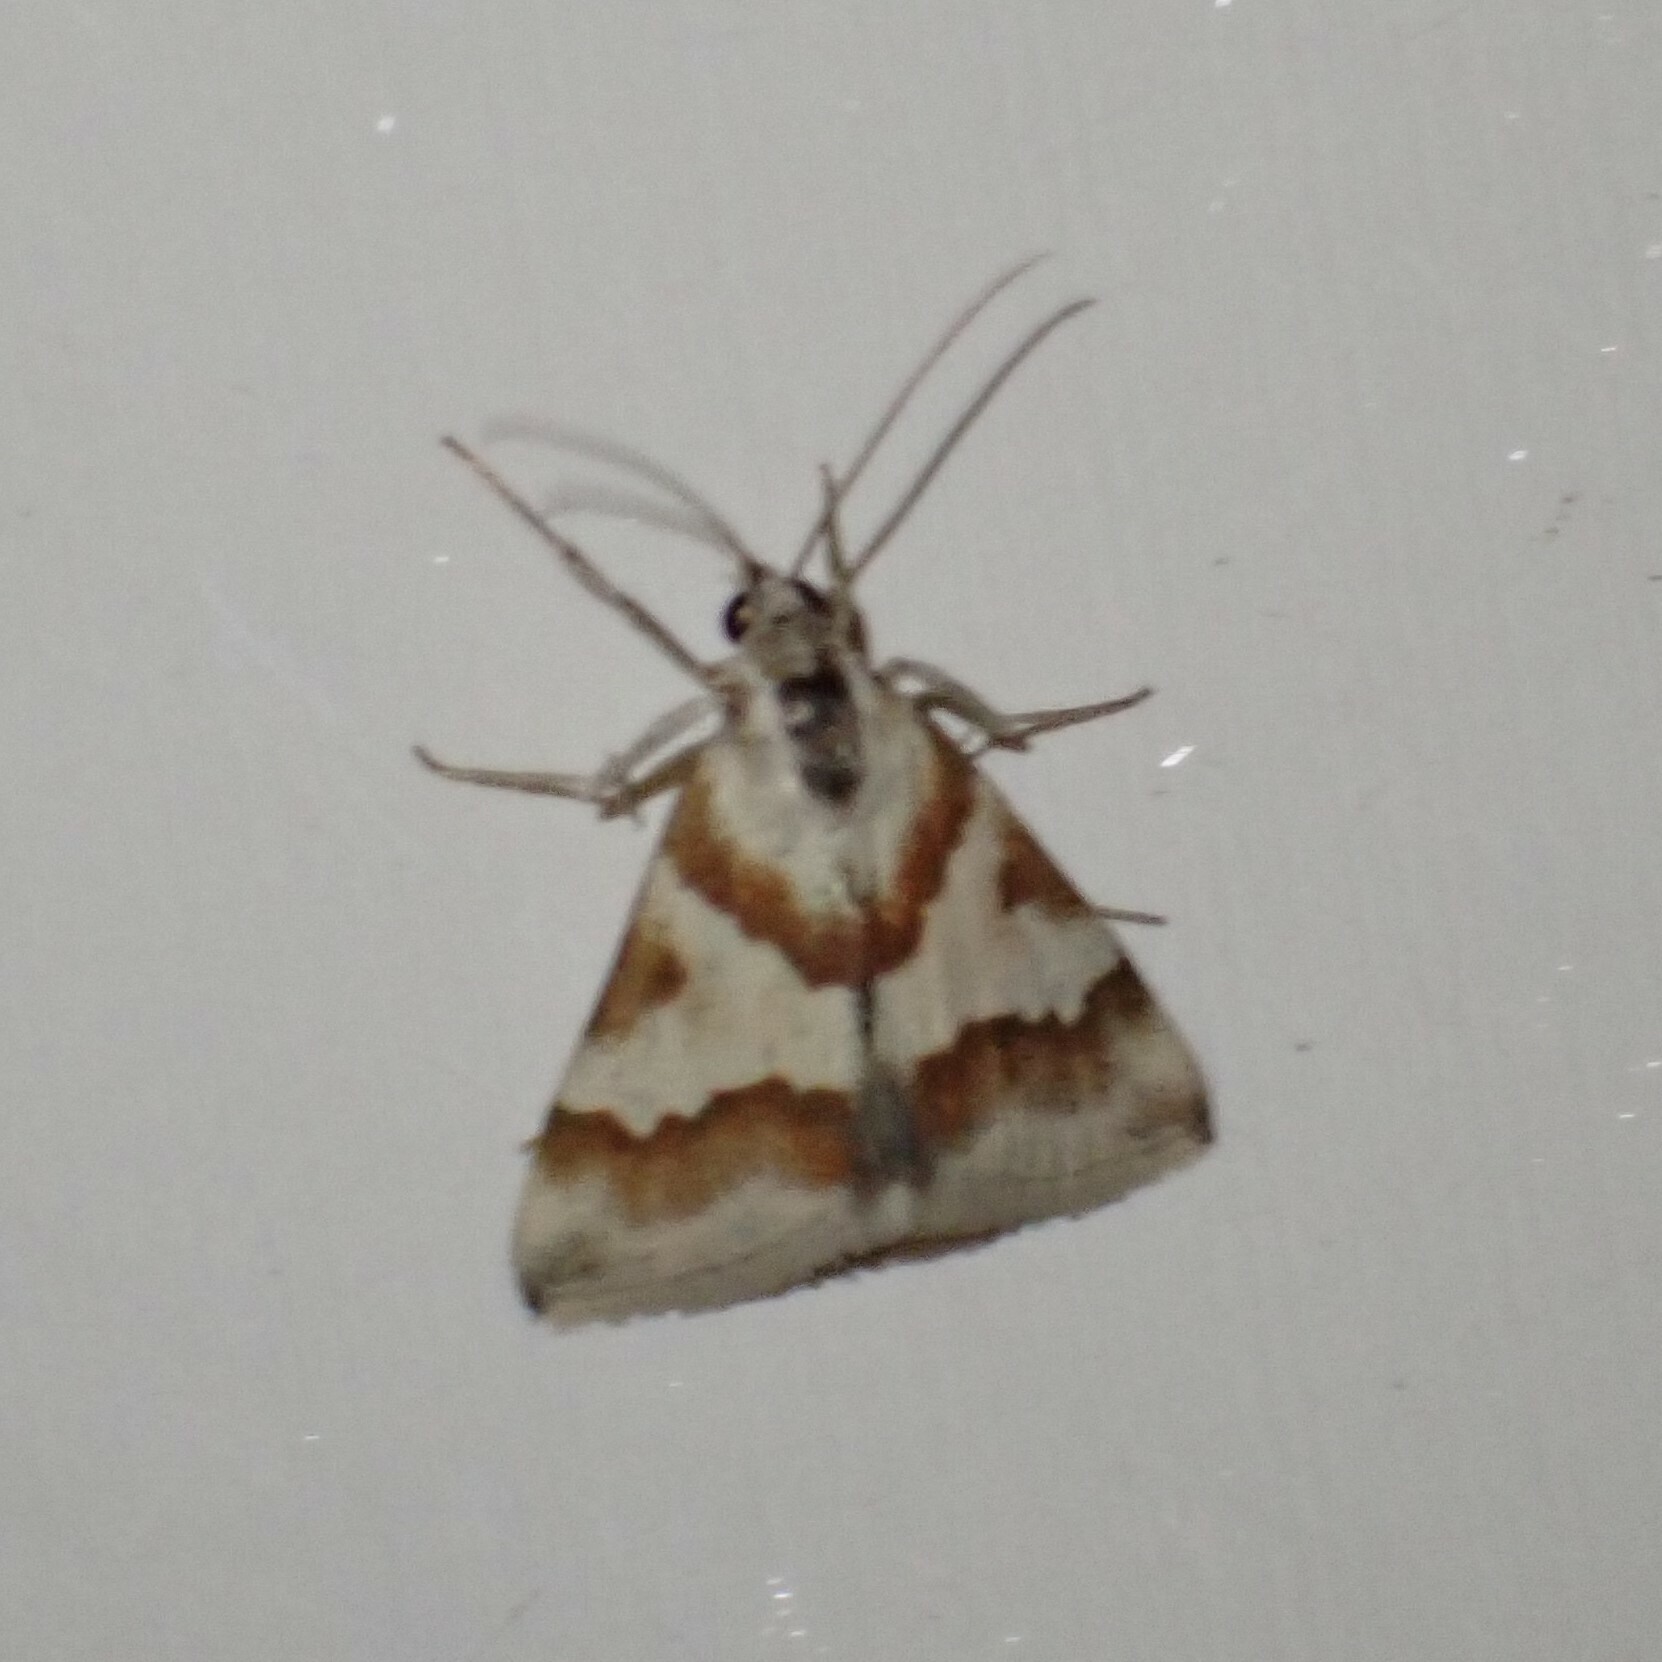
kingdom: Animalia
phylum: Arthropoda
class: Insecta
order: Lepidoptera
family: Crambidae
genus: Noctuelia
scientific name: Noctuelia Mimoschinia rufofascialis
